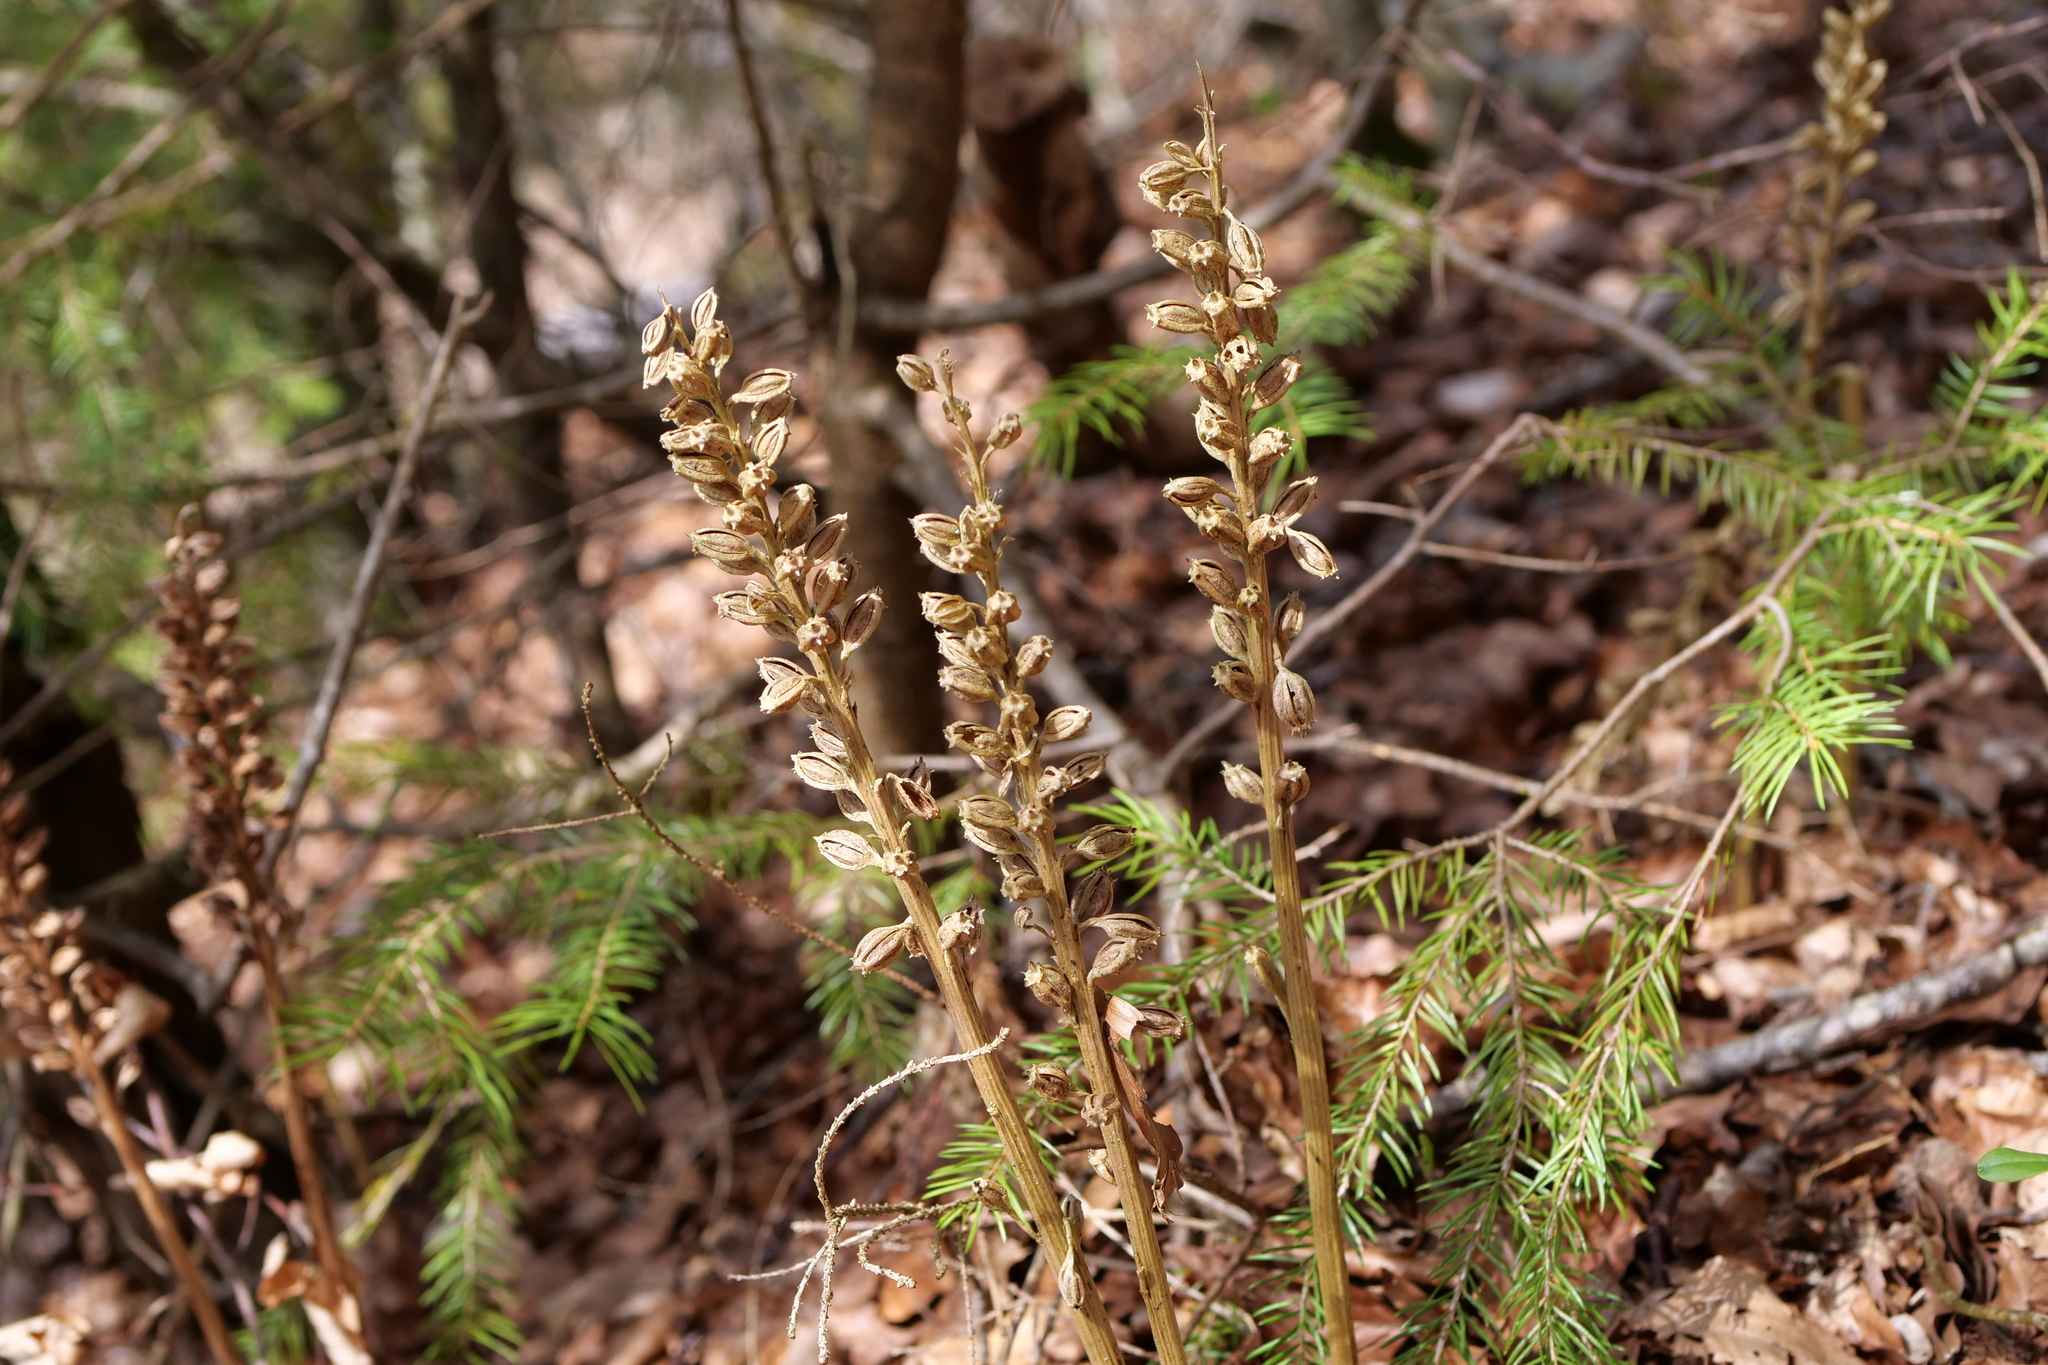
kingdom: Plantae
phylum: Tracheophyta
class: Liliopsida
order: Asparagales
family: Orchidaceae
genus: Neottia
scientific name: Neottia nidus-avis
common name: Bird's-nest orchid
